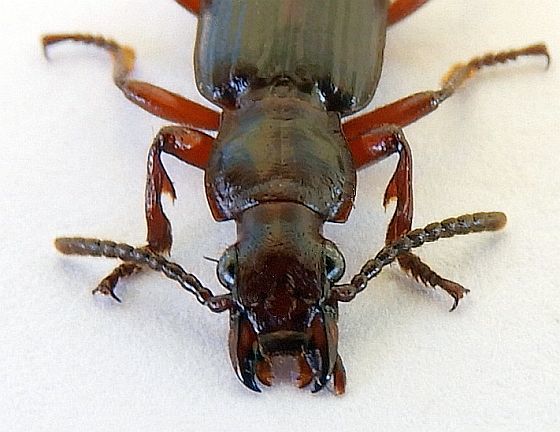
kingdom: Animalia
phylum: Arthropoda
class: Insecta
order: Coleoptera
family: Carabidae
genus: Goniotropis
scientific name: Goniotropis parca
